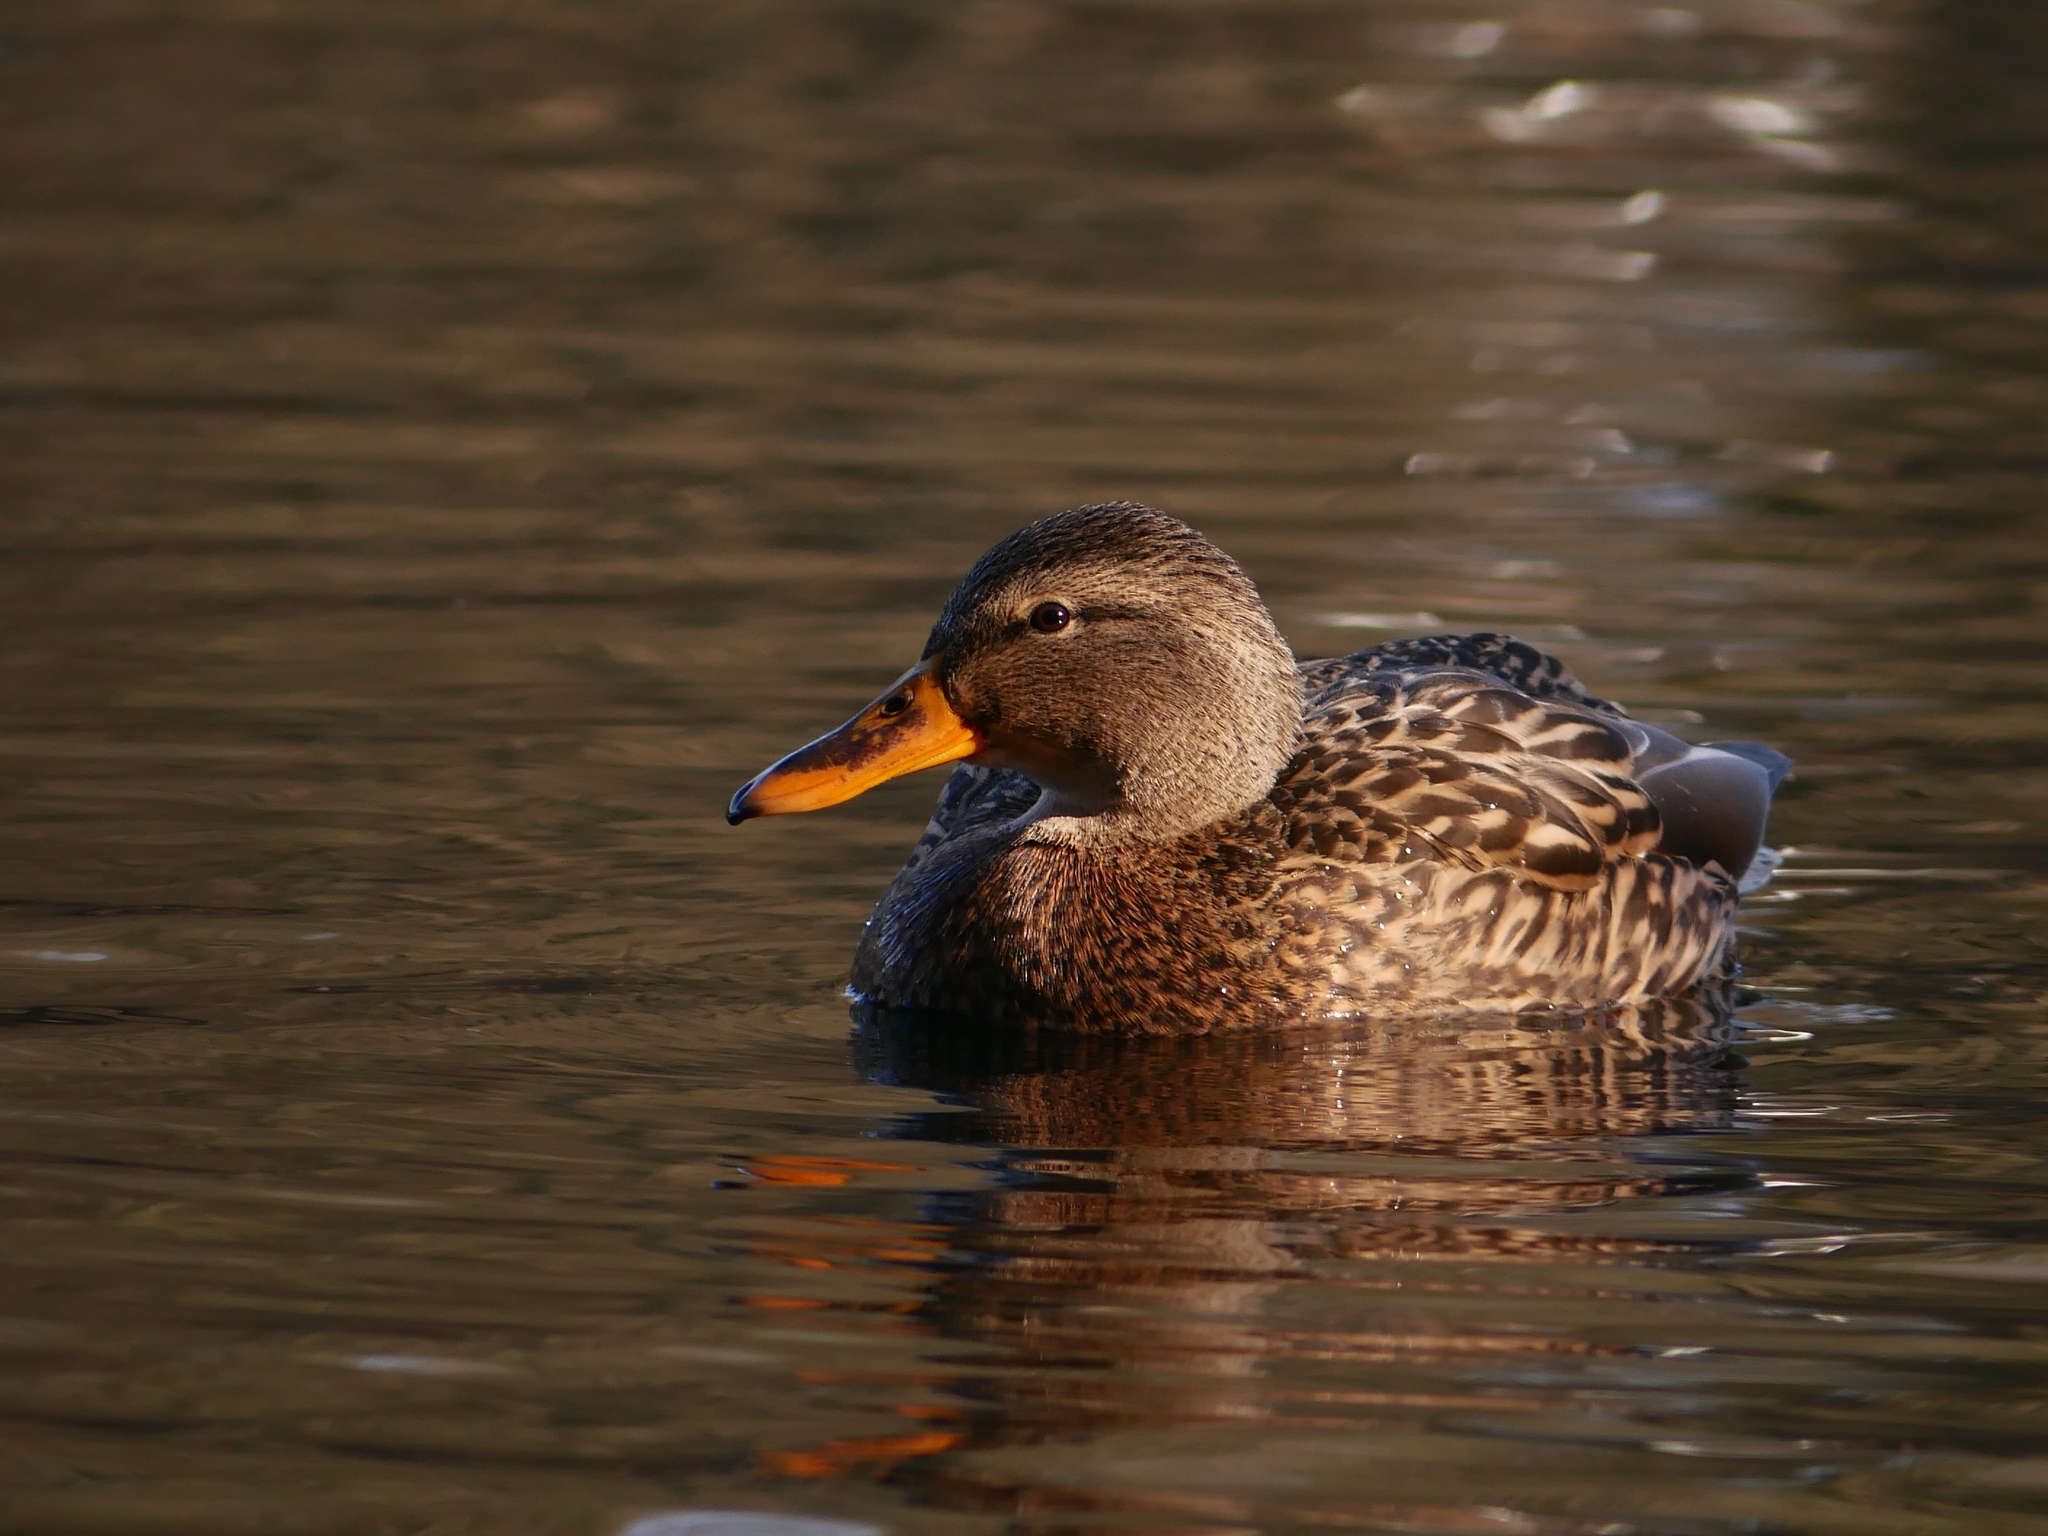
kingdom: Animalia
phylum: Chordata
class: Aves
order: Anseriformes
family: Anatidae
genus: Anas
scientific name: Anas platyrhynchos
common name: Mallard
